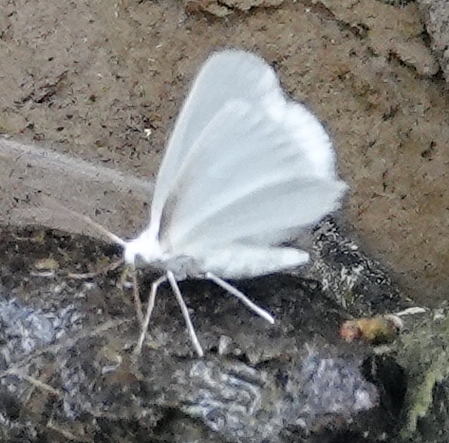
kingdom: Animalia
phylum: Arthropoda
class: Insecta
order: Lepidoptera
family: Geometridae
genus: Lomographa
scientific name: Lomographa vestaliata
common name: White spring moth
